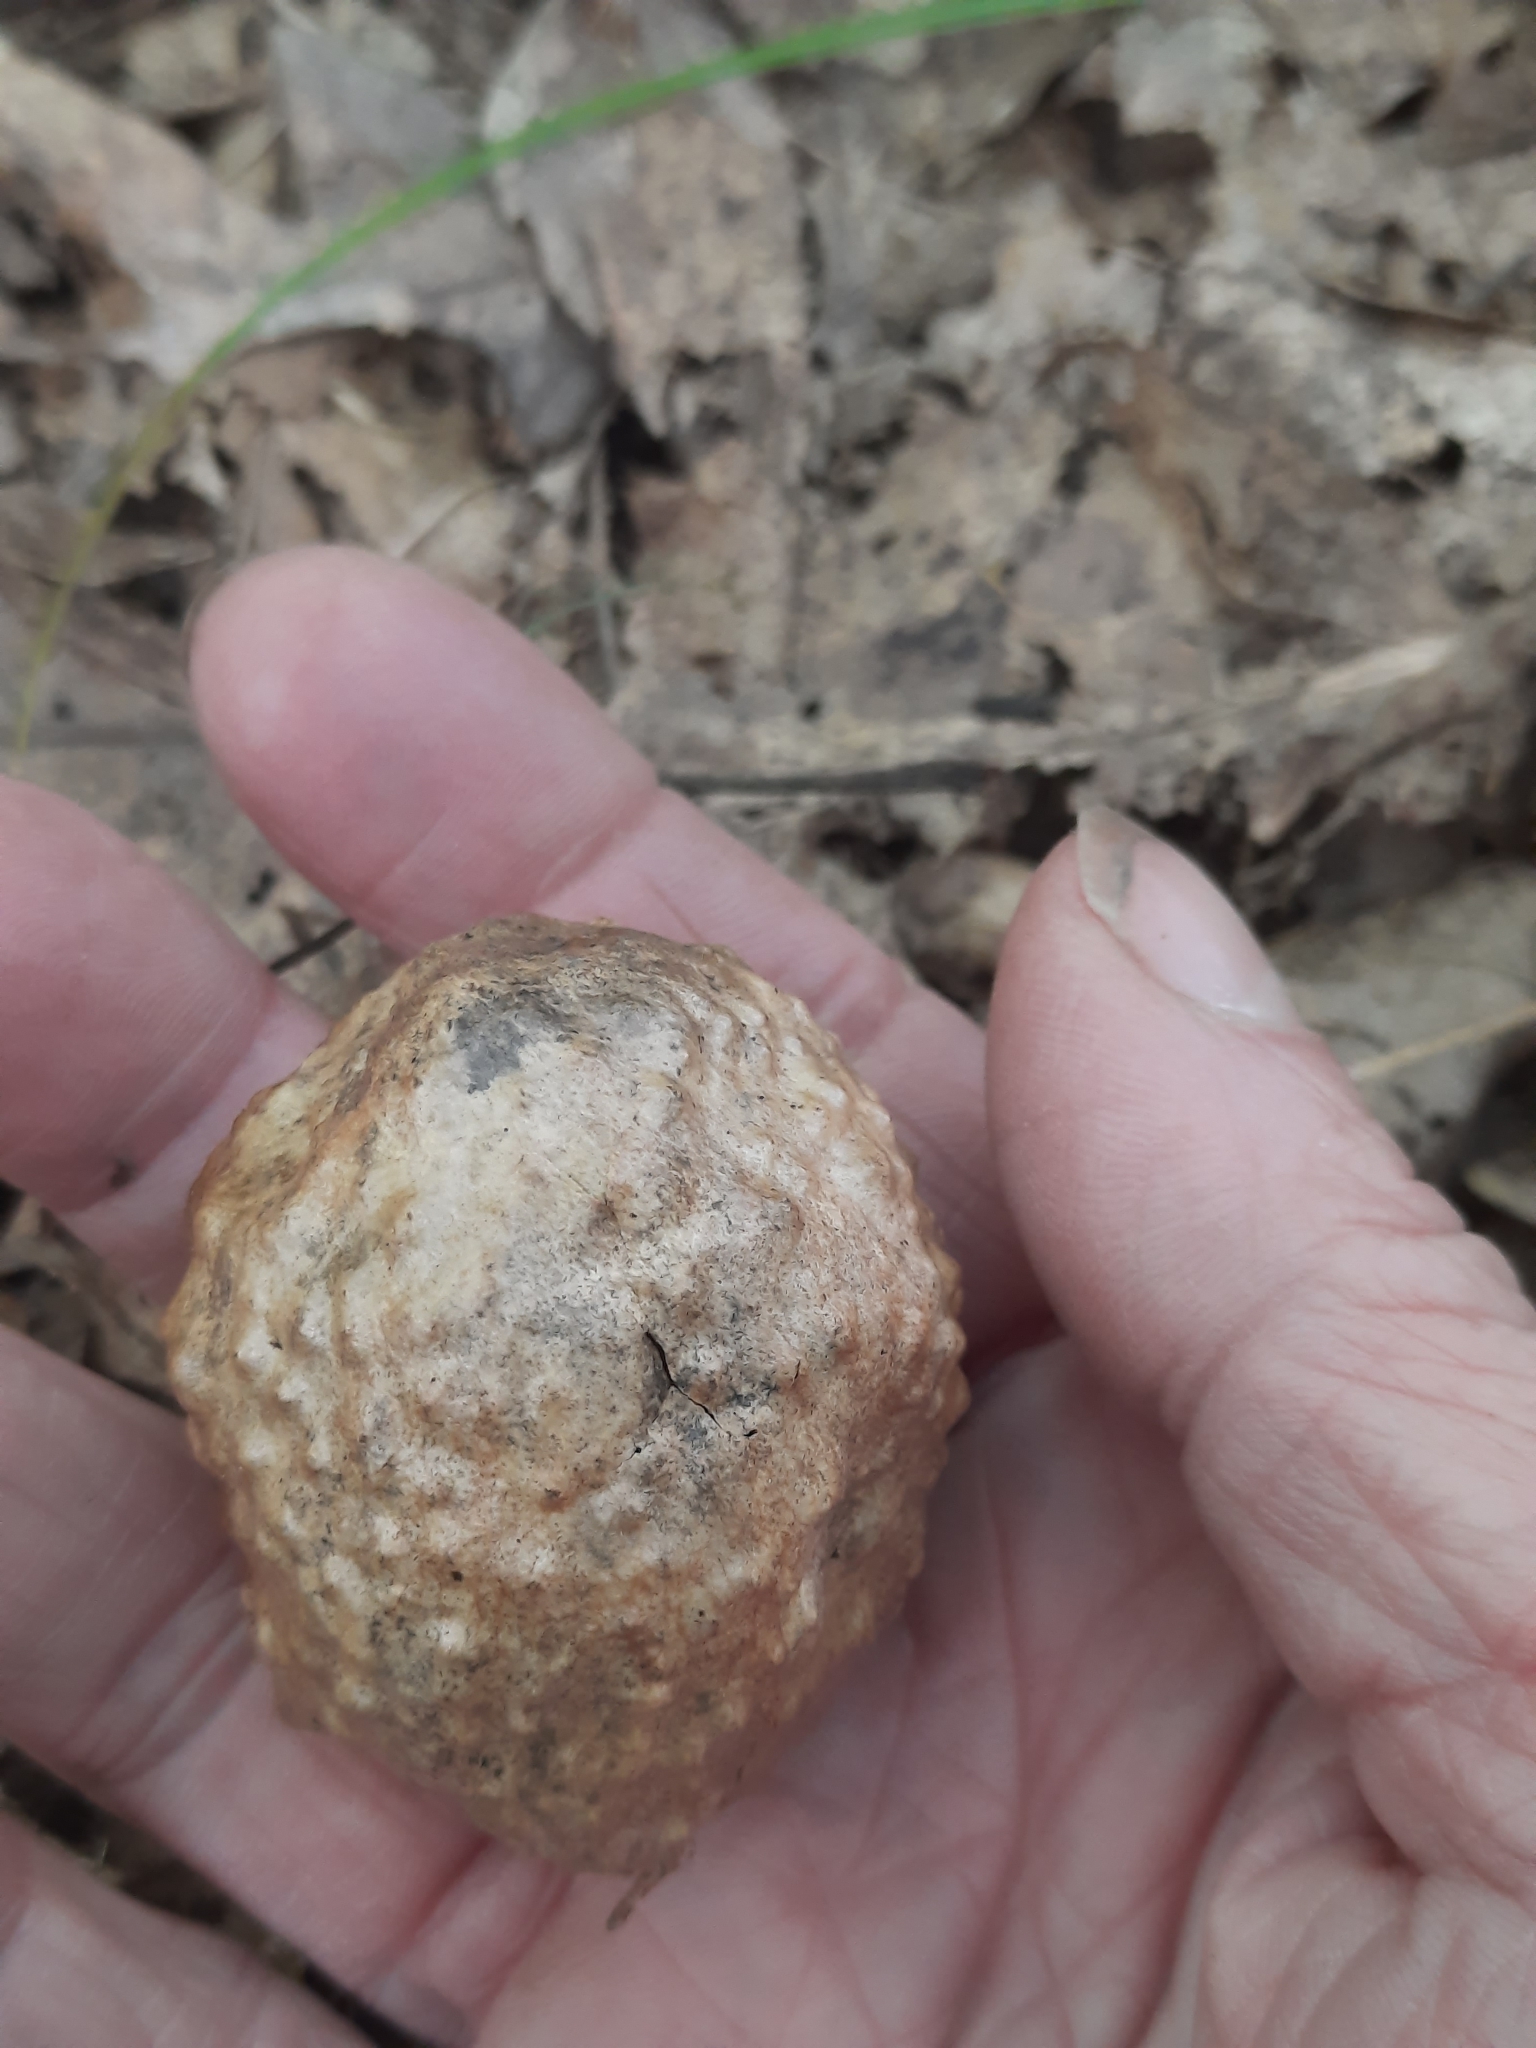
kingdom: Animalia
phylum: Arthropoda
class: Insecta
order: Hymenoptera
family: Cynipidae
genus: Amphibolips
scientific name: Amphibolips
